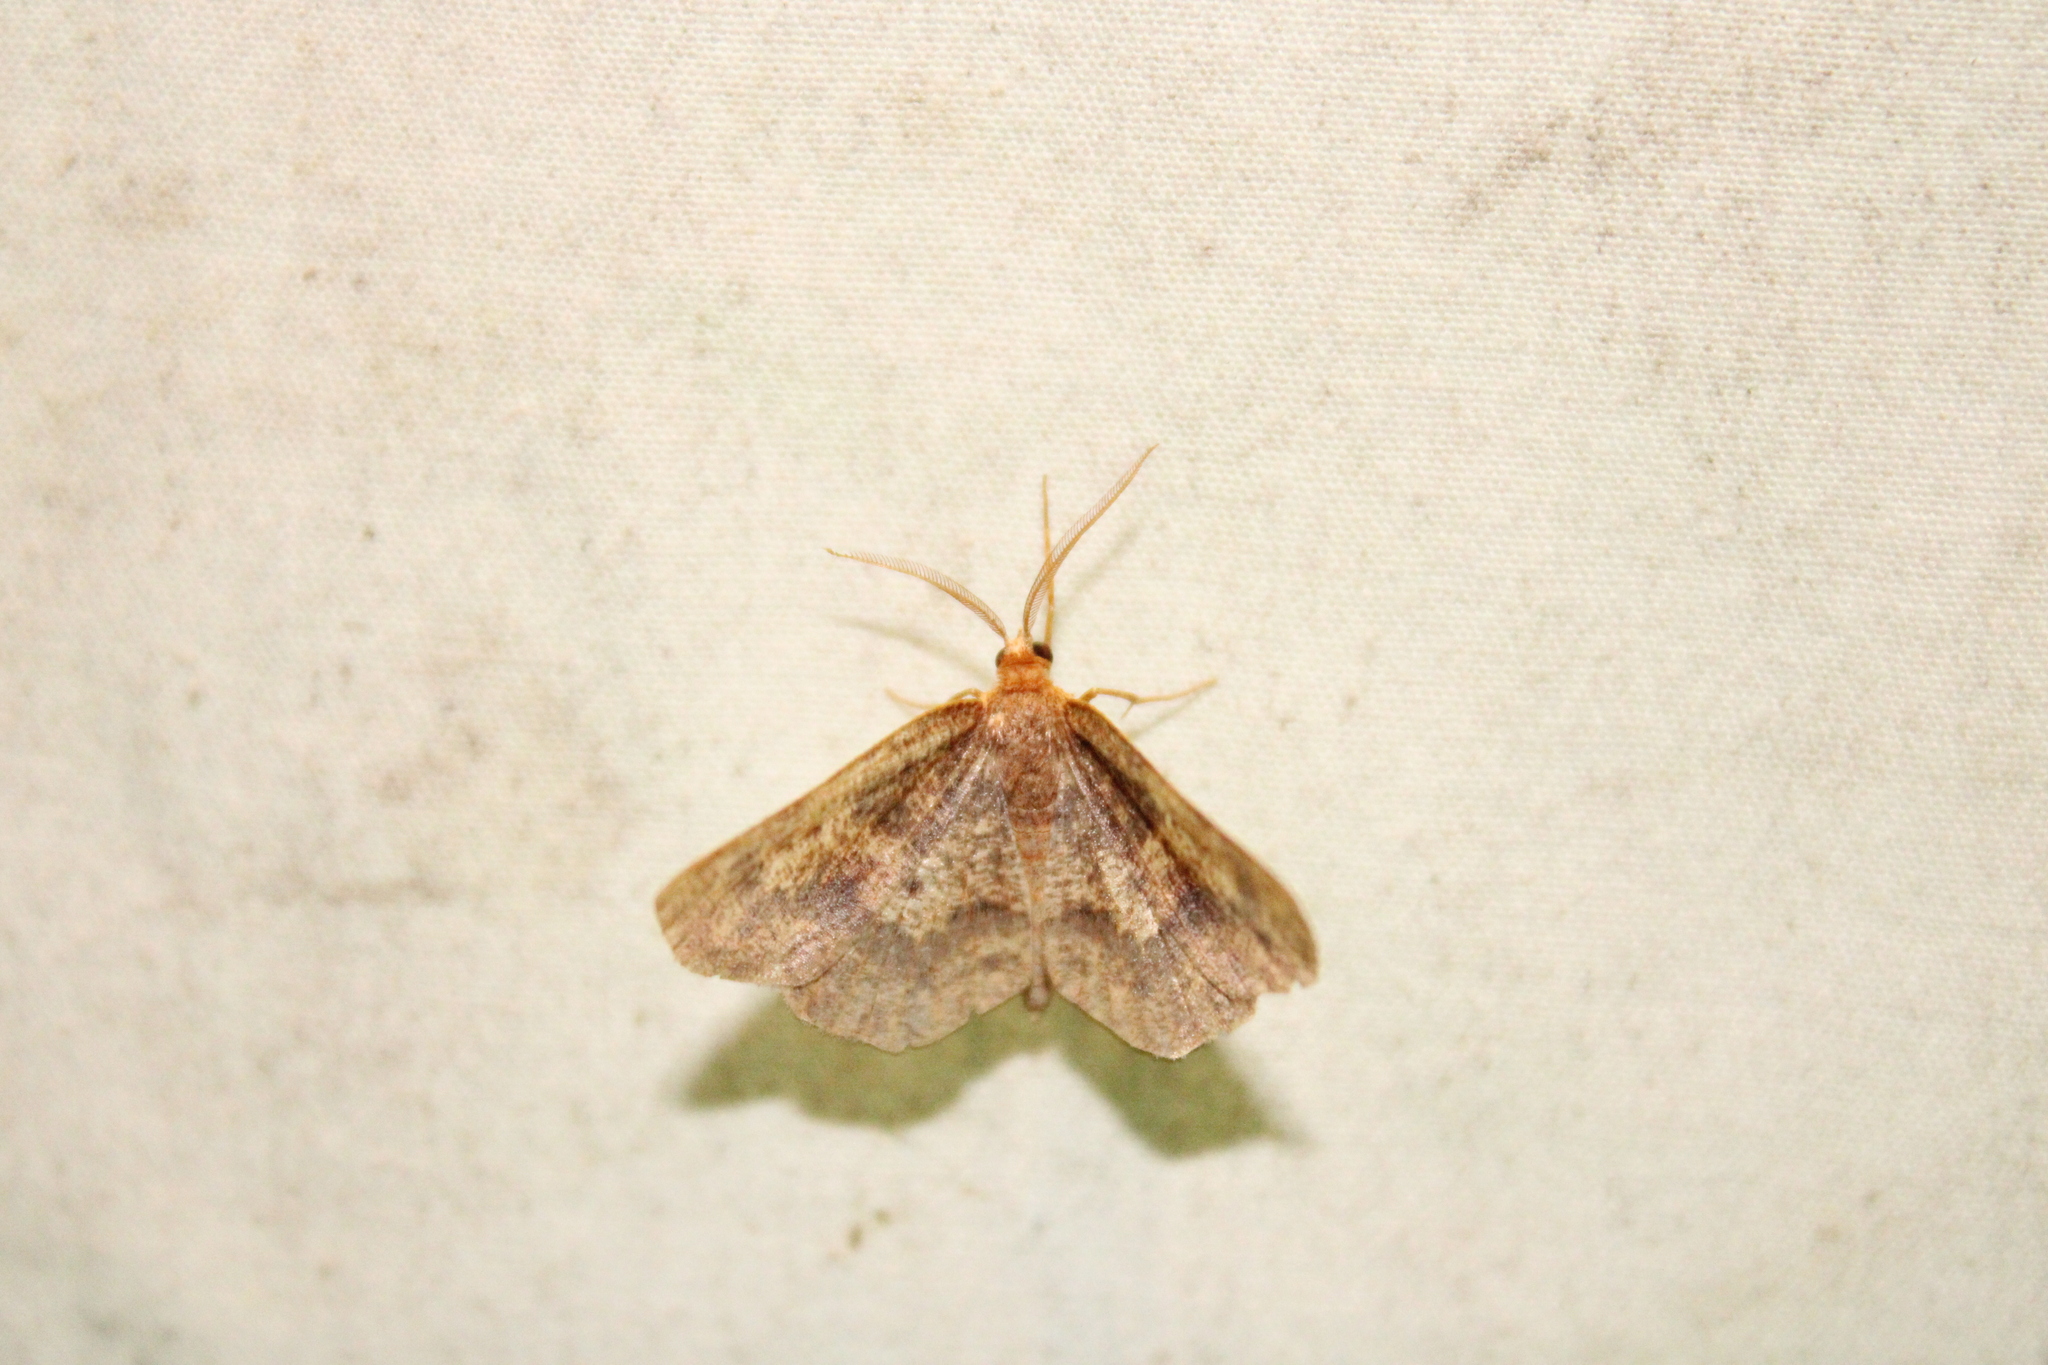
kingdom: Animalia
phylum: Arthropoda
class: Insecta
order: Lepidoptera
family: Geometridae
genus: Metarranthis
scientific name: Metarranthis angularia
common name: Angled metarranthis moth
